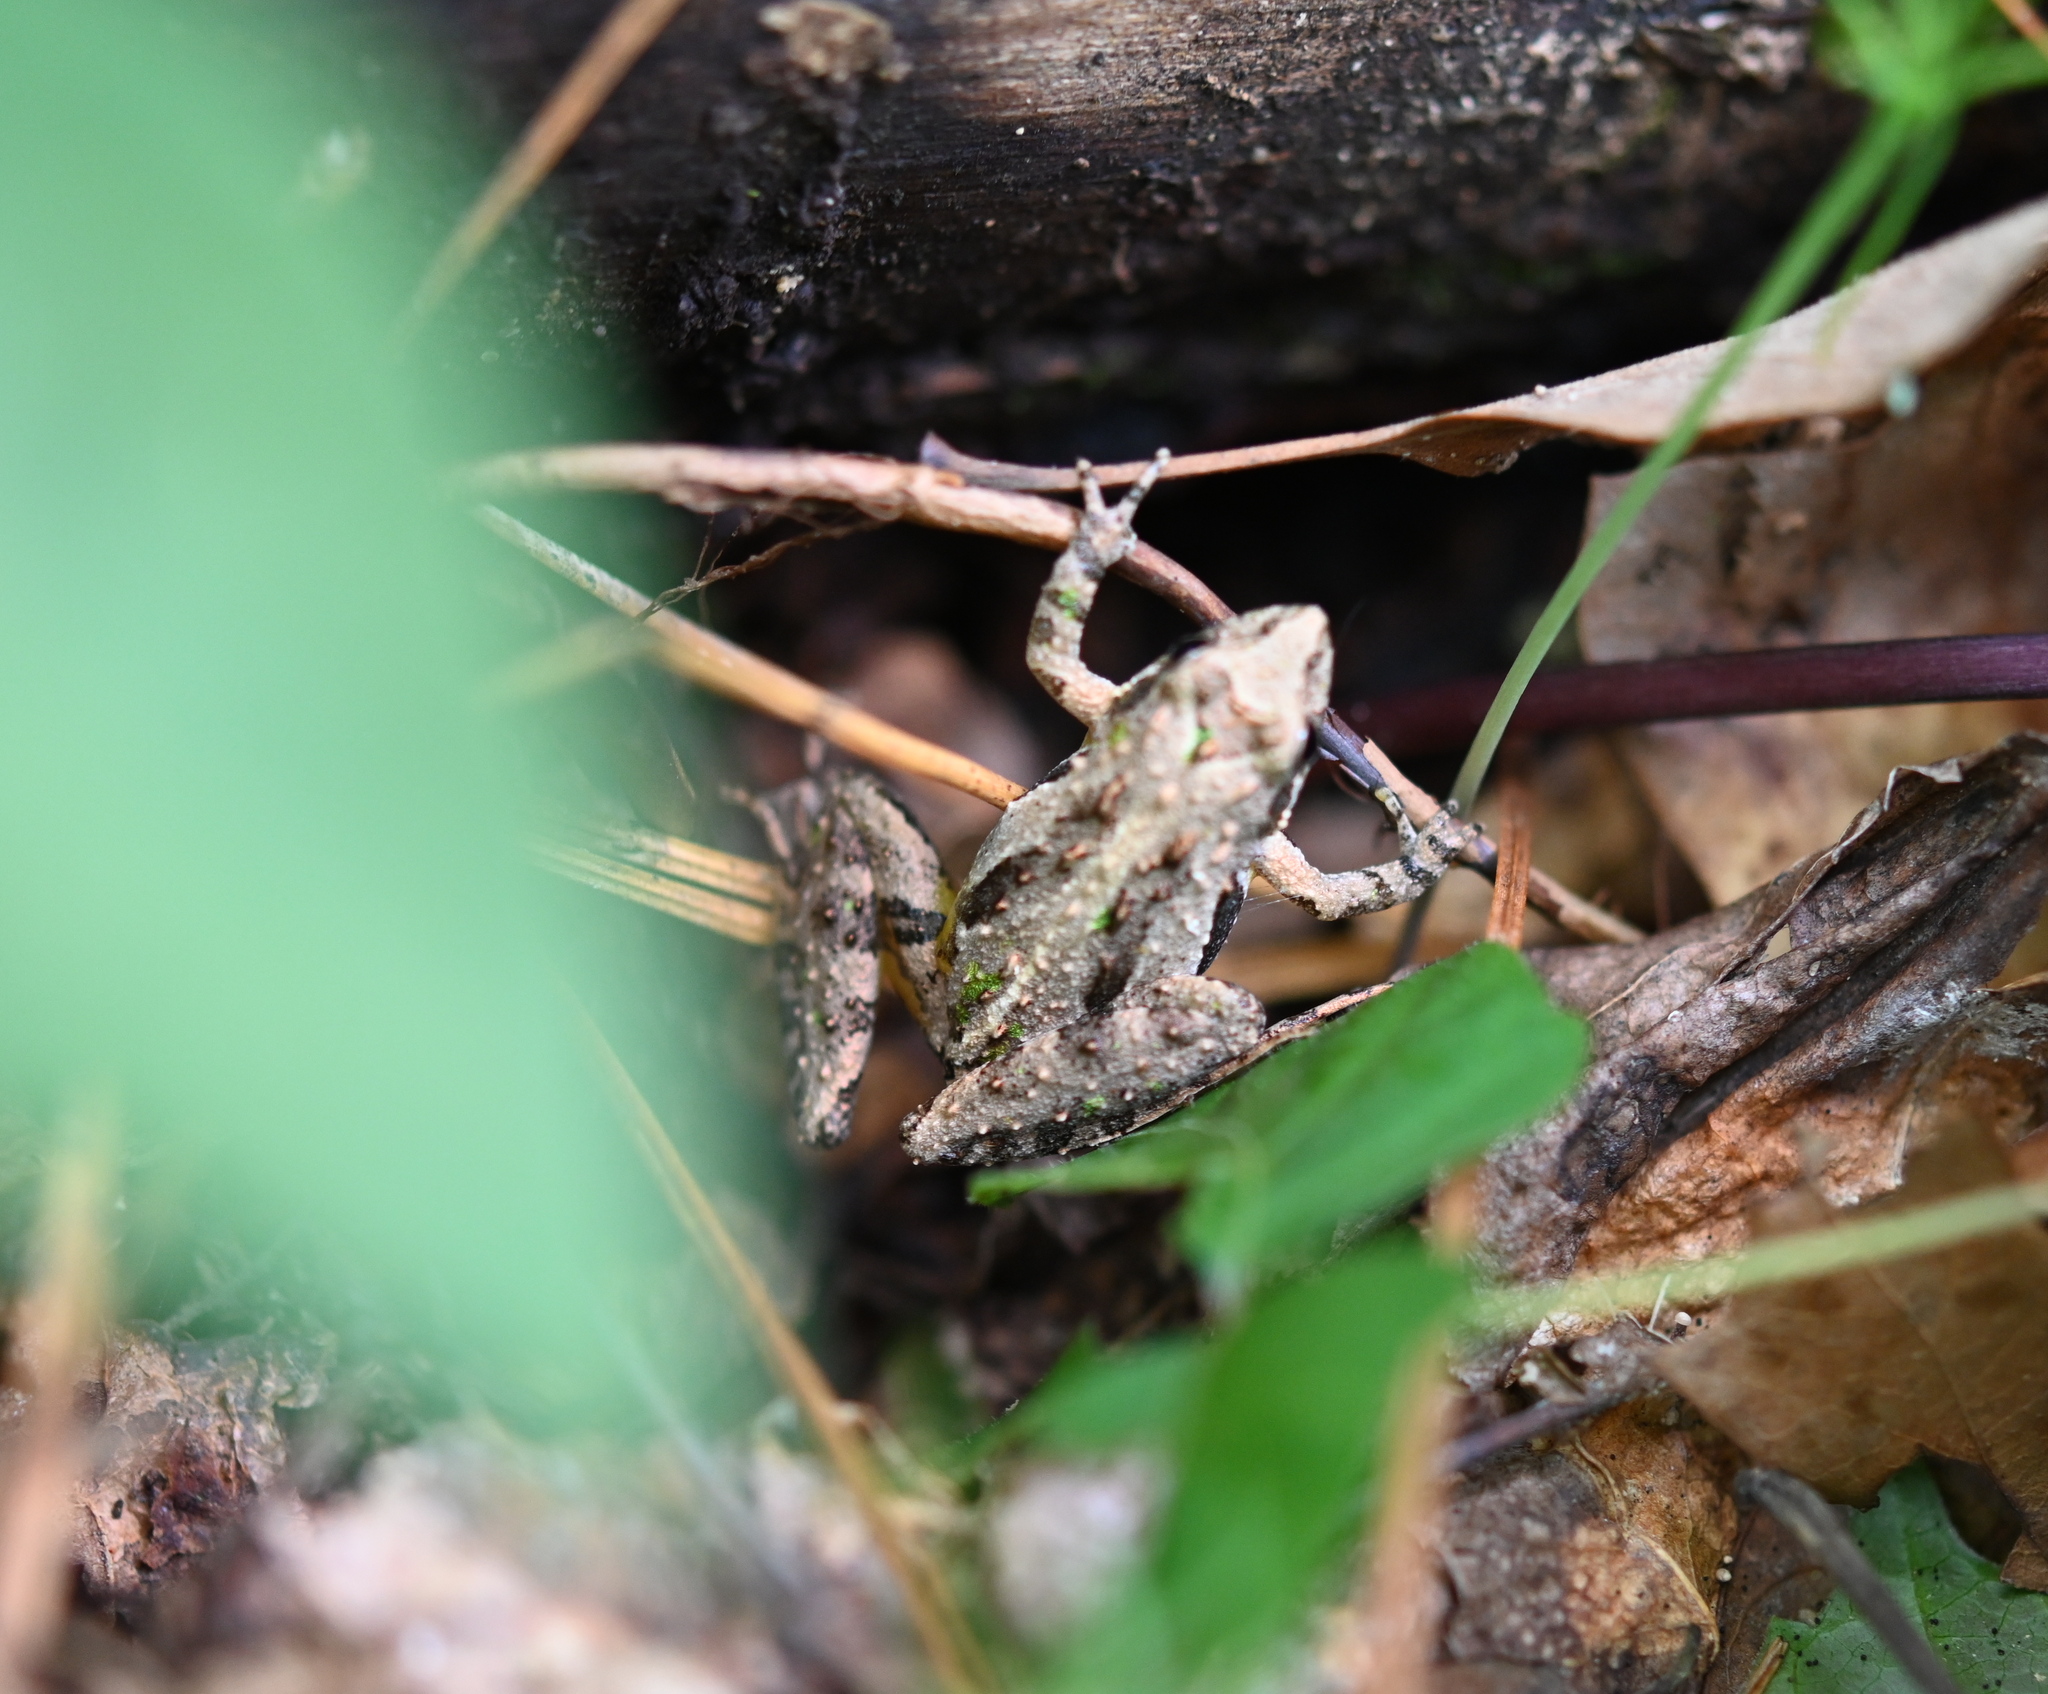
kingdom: Animalia
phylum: Chordata
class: Amphibia
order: Anura
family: Hylidae
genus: Acris
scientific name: Acris gryllus
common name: Southern cricket frog
